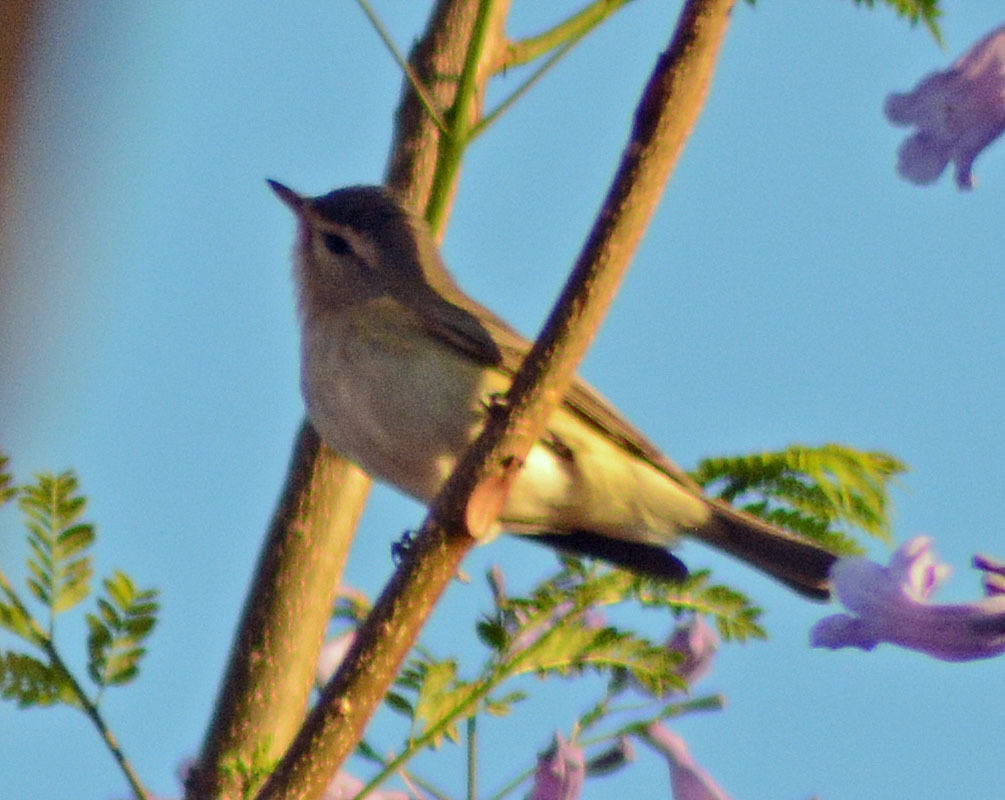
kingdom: Animalia
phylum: Chordata
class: Aves
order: Passeriformes
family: Vireonidae
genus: Vireo
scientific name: Vireo gilvus
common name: Warbling vireo
